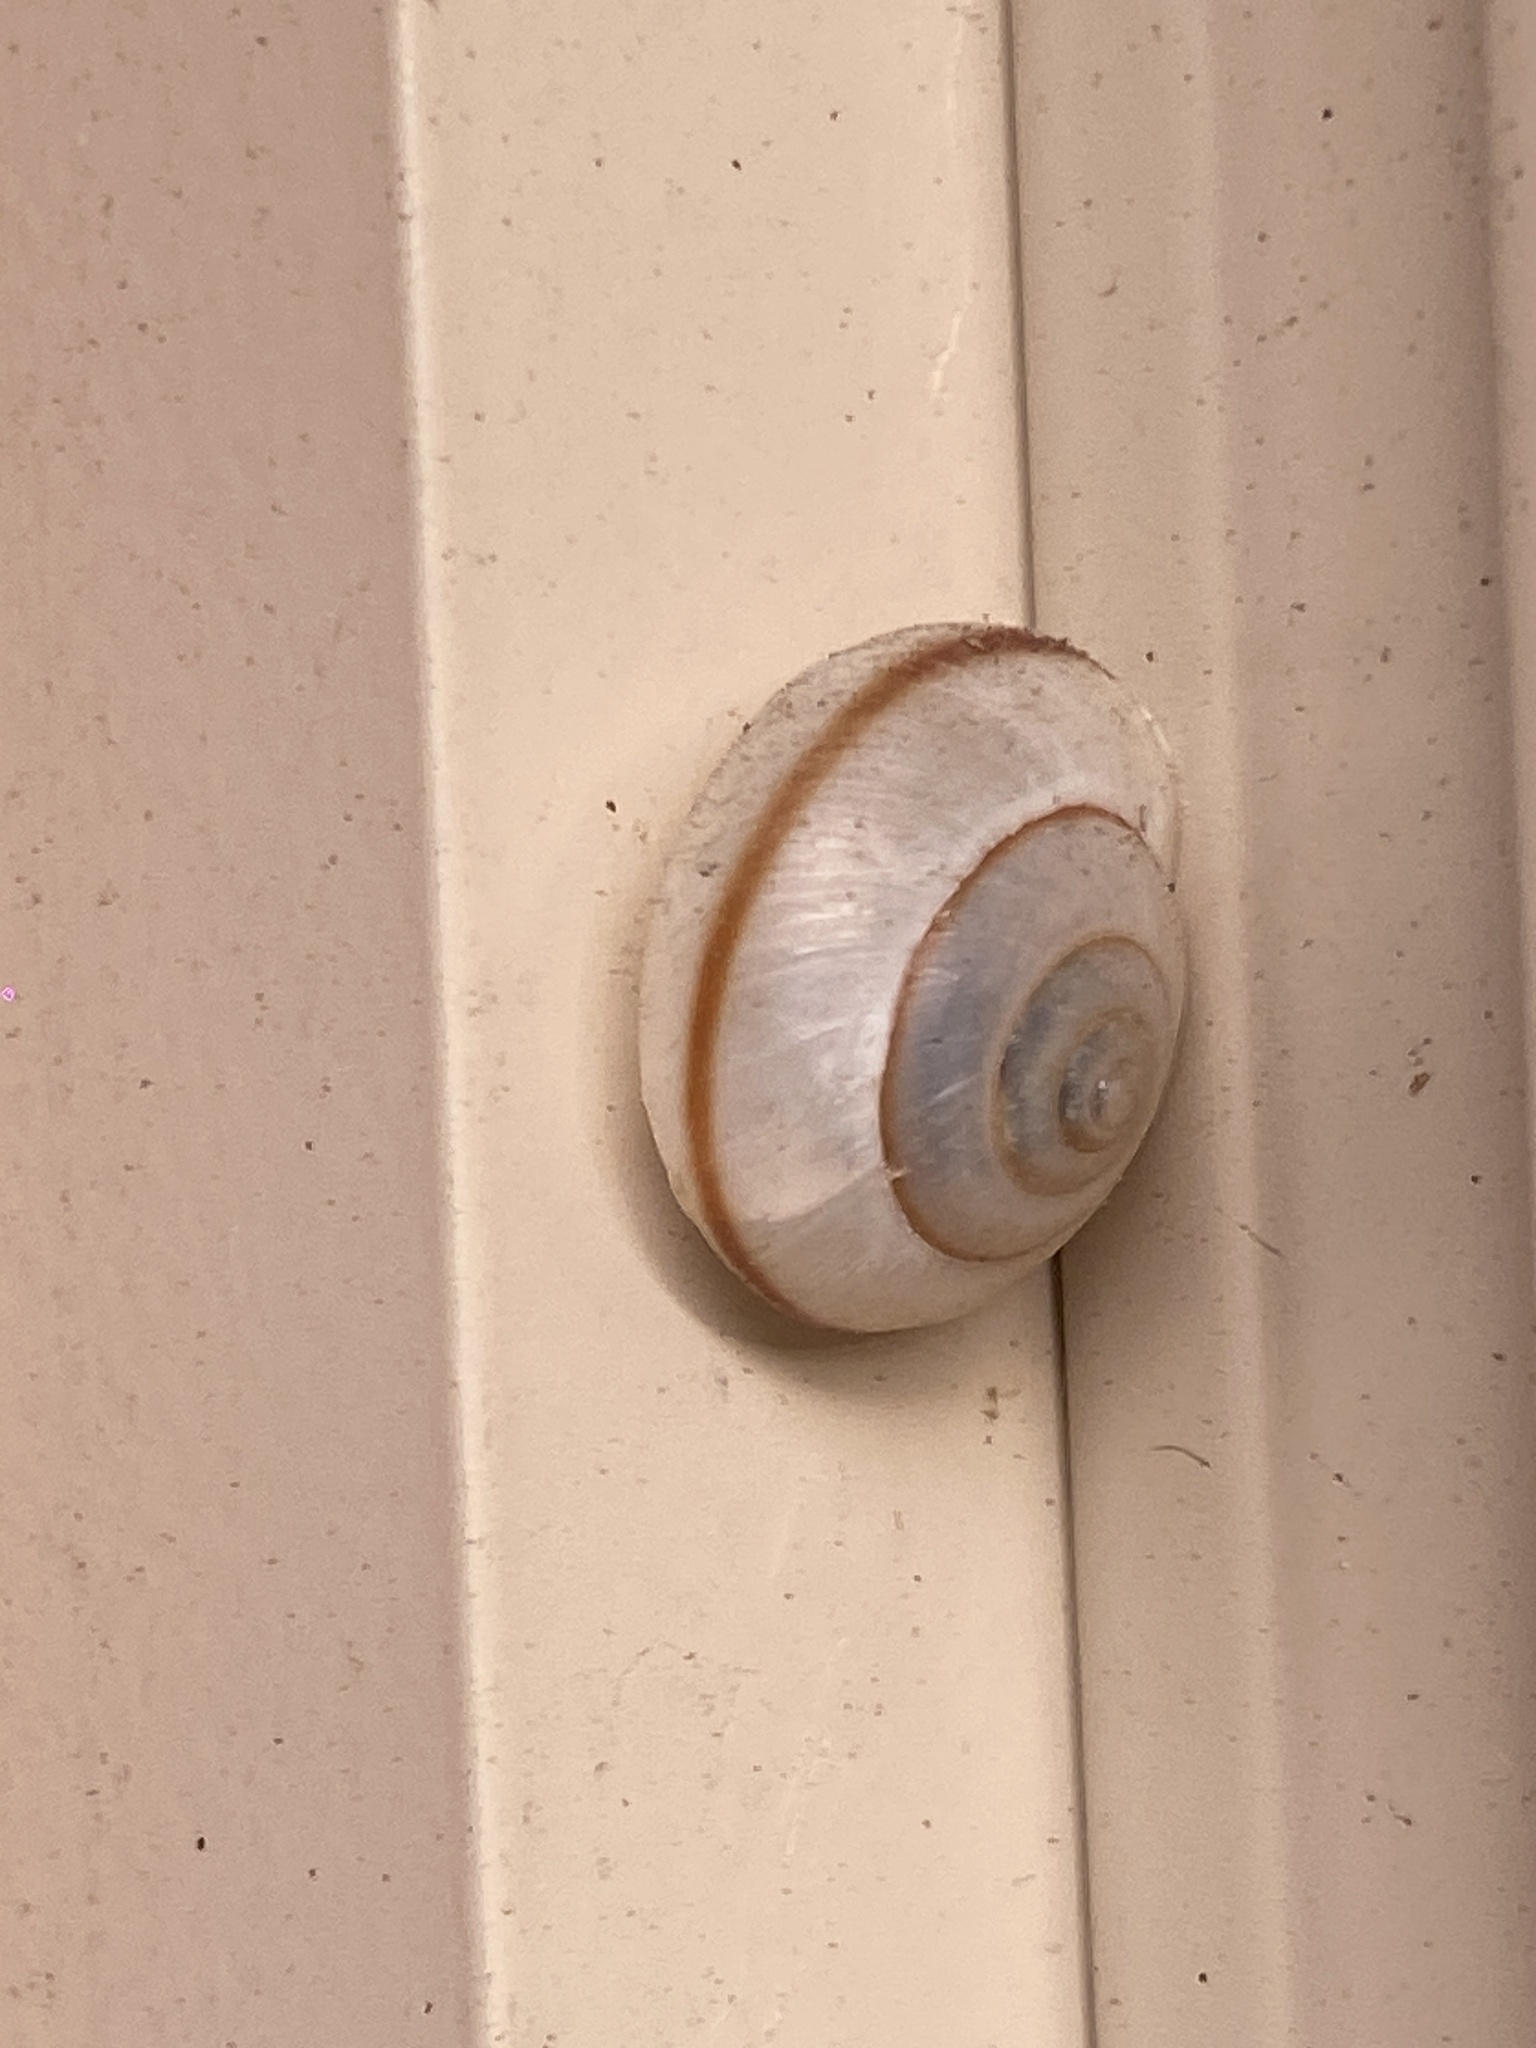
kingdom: Animalia
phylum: Mollusca
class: Gastropoda
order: Stylommatophora
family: Camaenidae
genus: Bradybaena
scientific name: Bradybaena similaris
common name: Asian trampsnail
